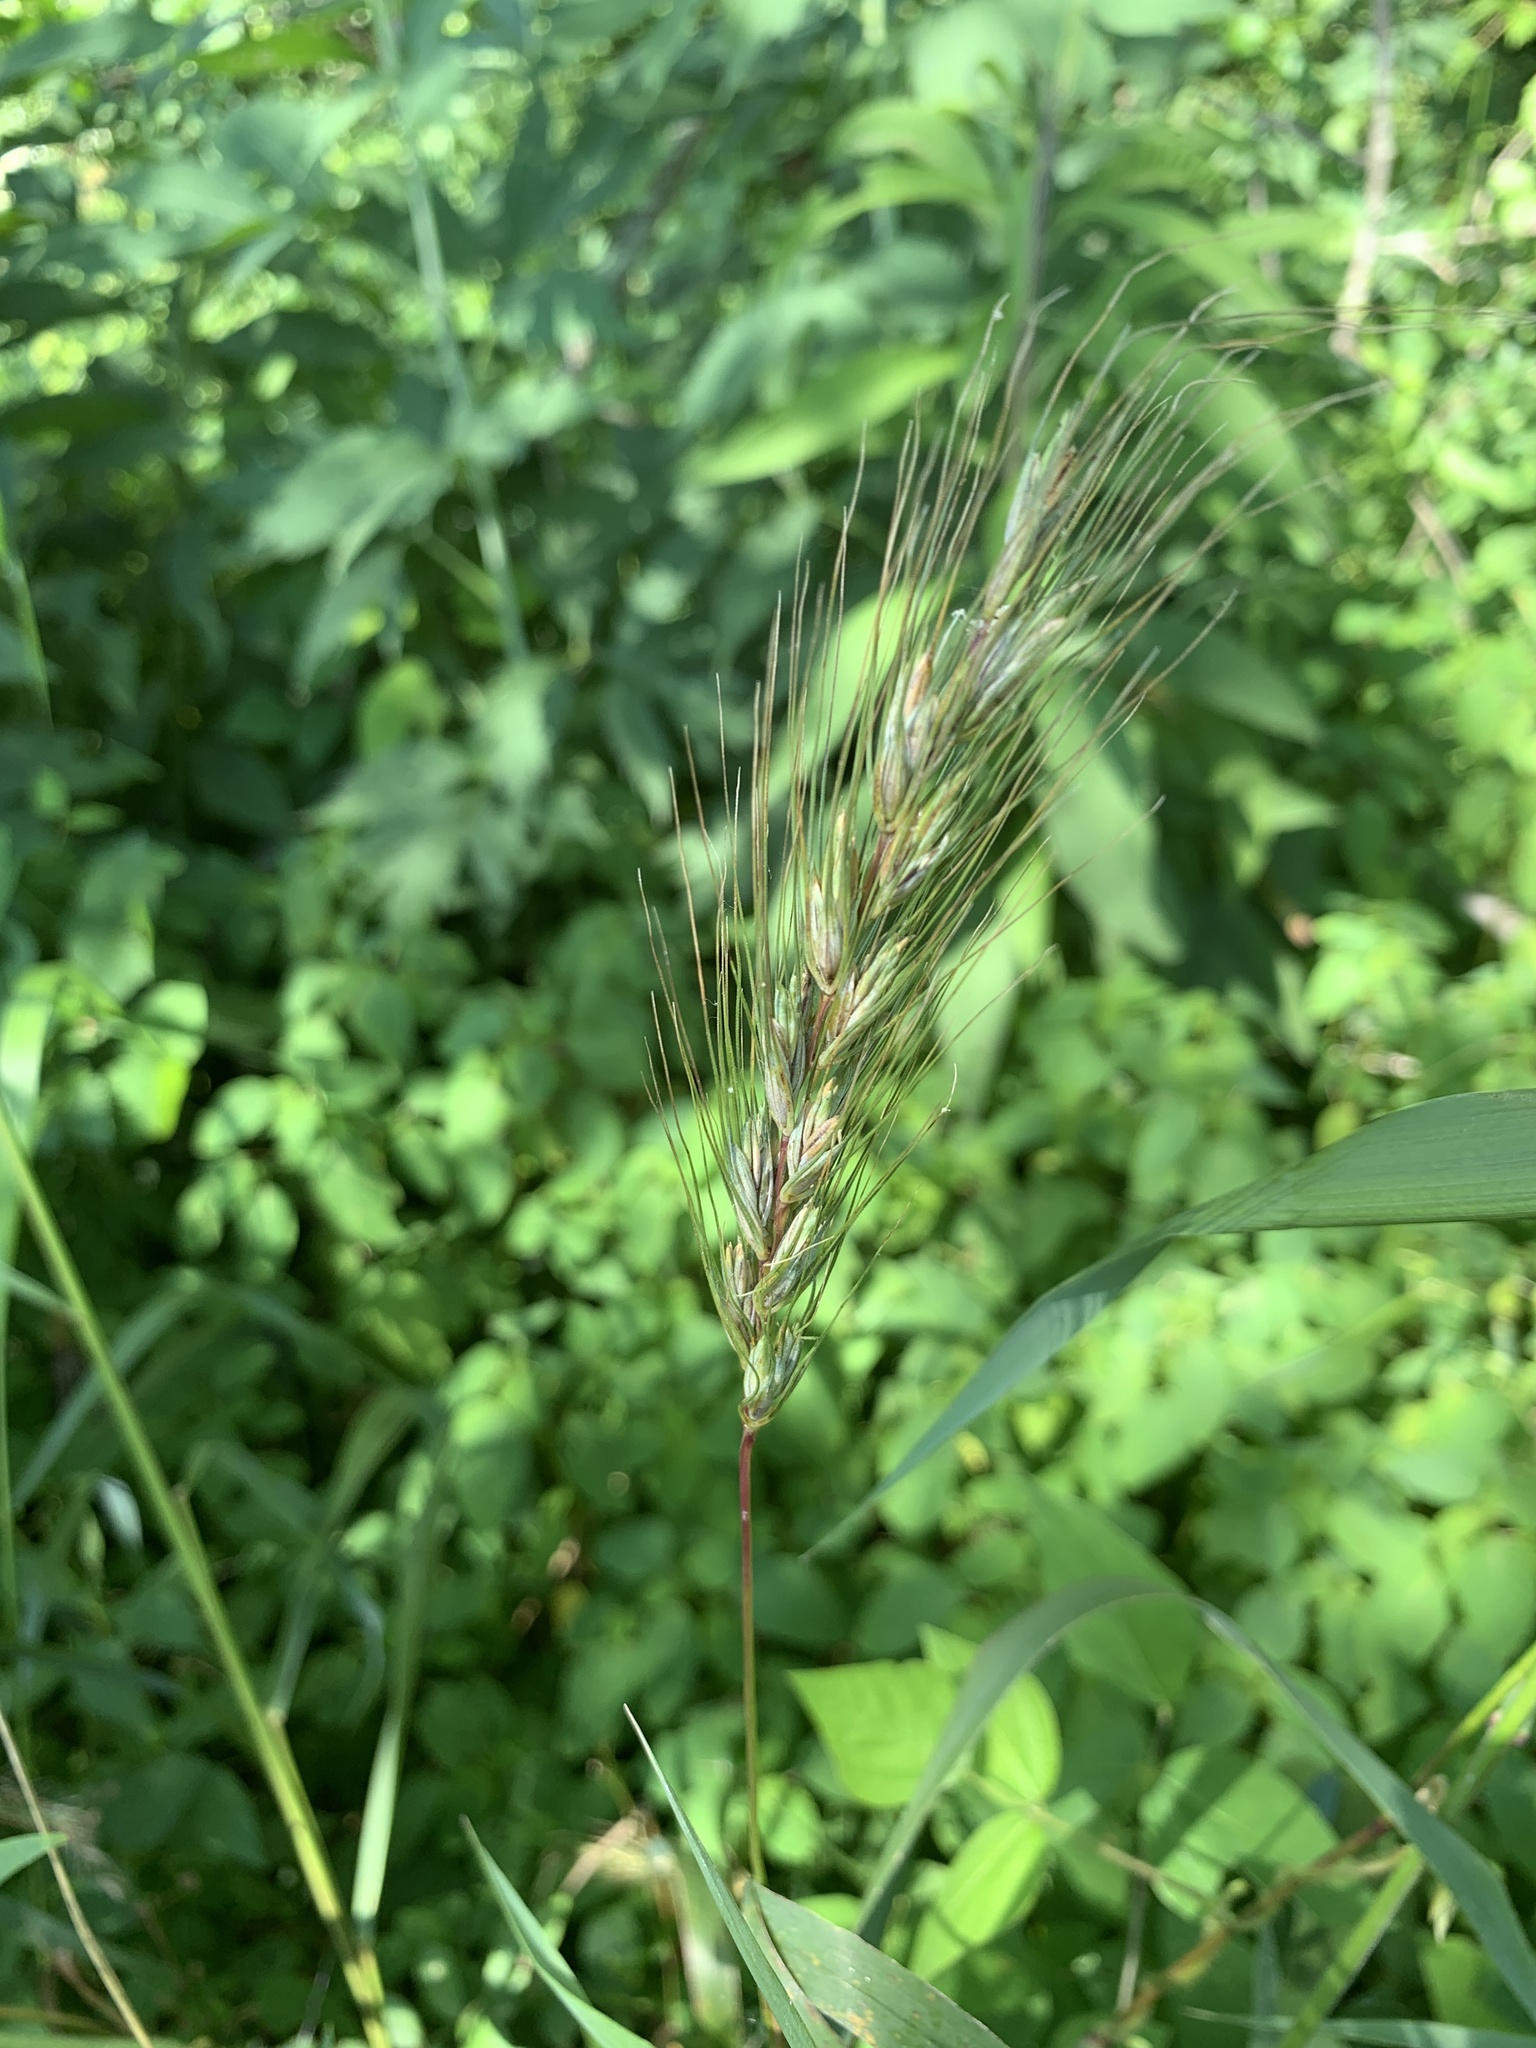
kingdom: Plantae
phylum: Tracheophyta
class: Liliopsida
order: Poales
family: Poaceae
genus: Elymus
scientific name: Elymus macgregorii
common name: Early wild rye
